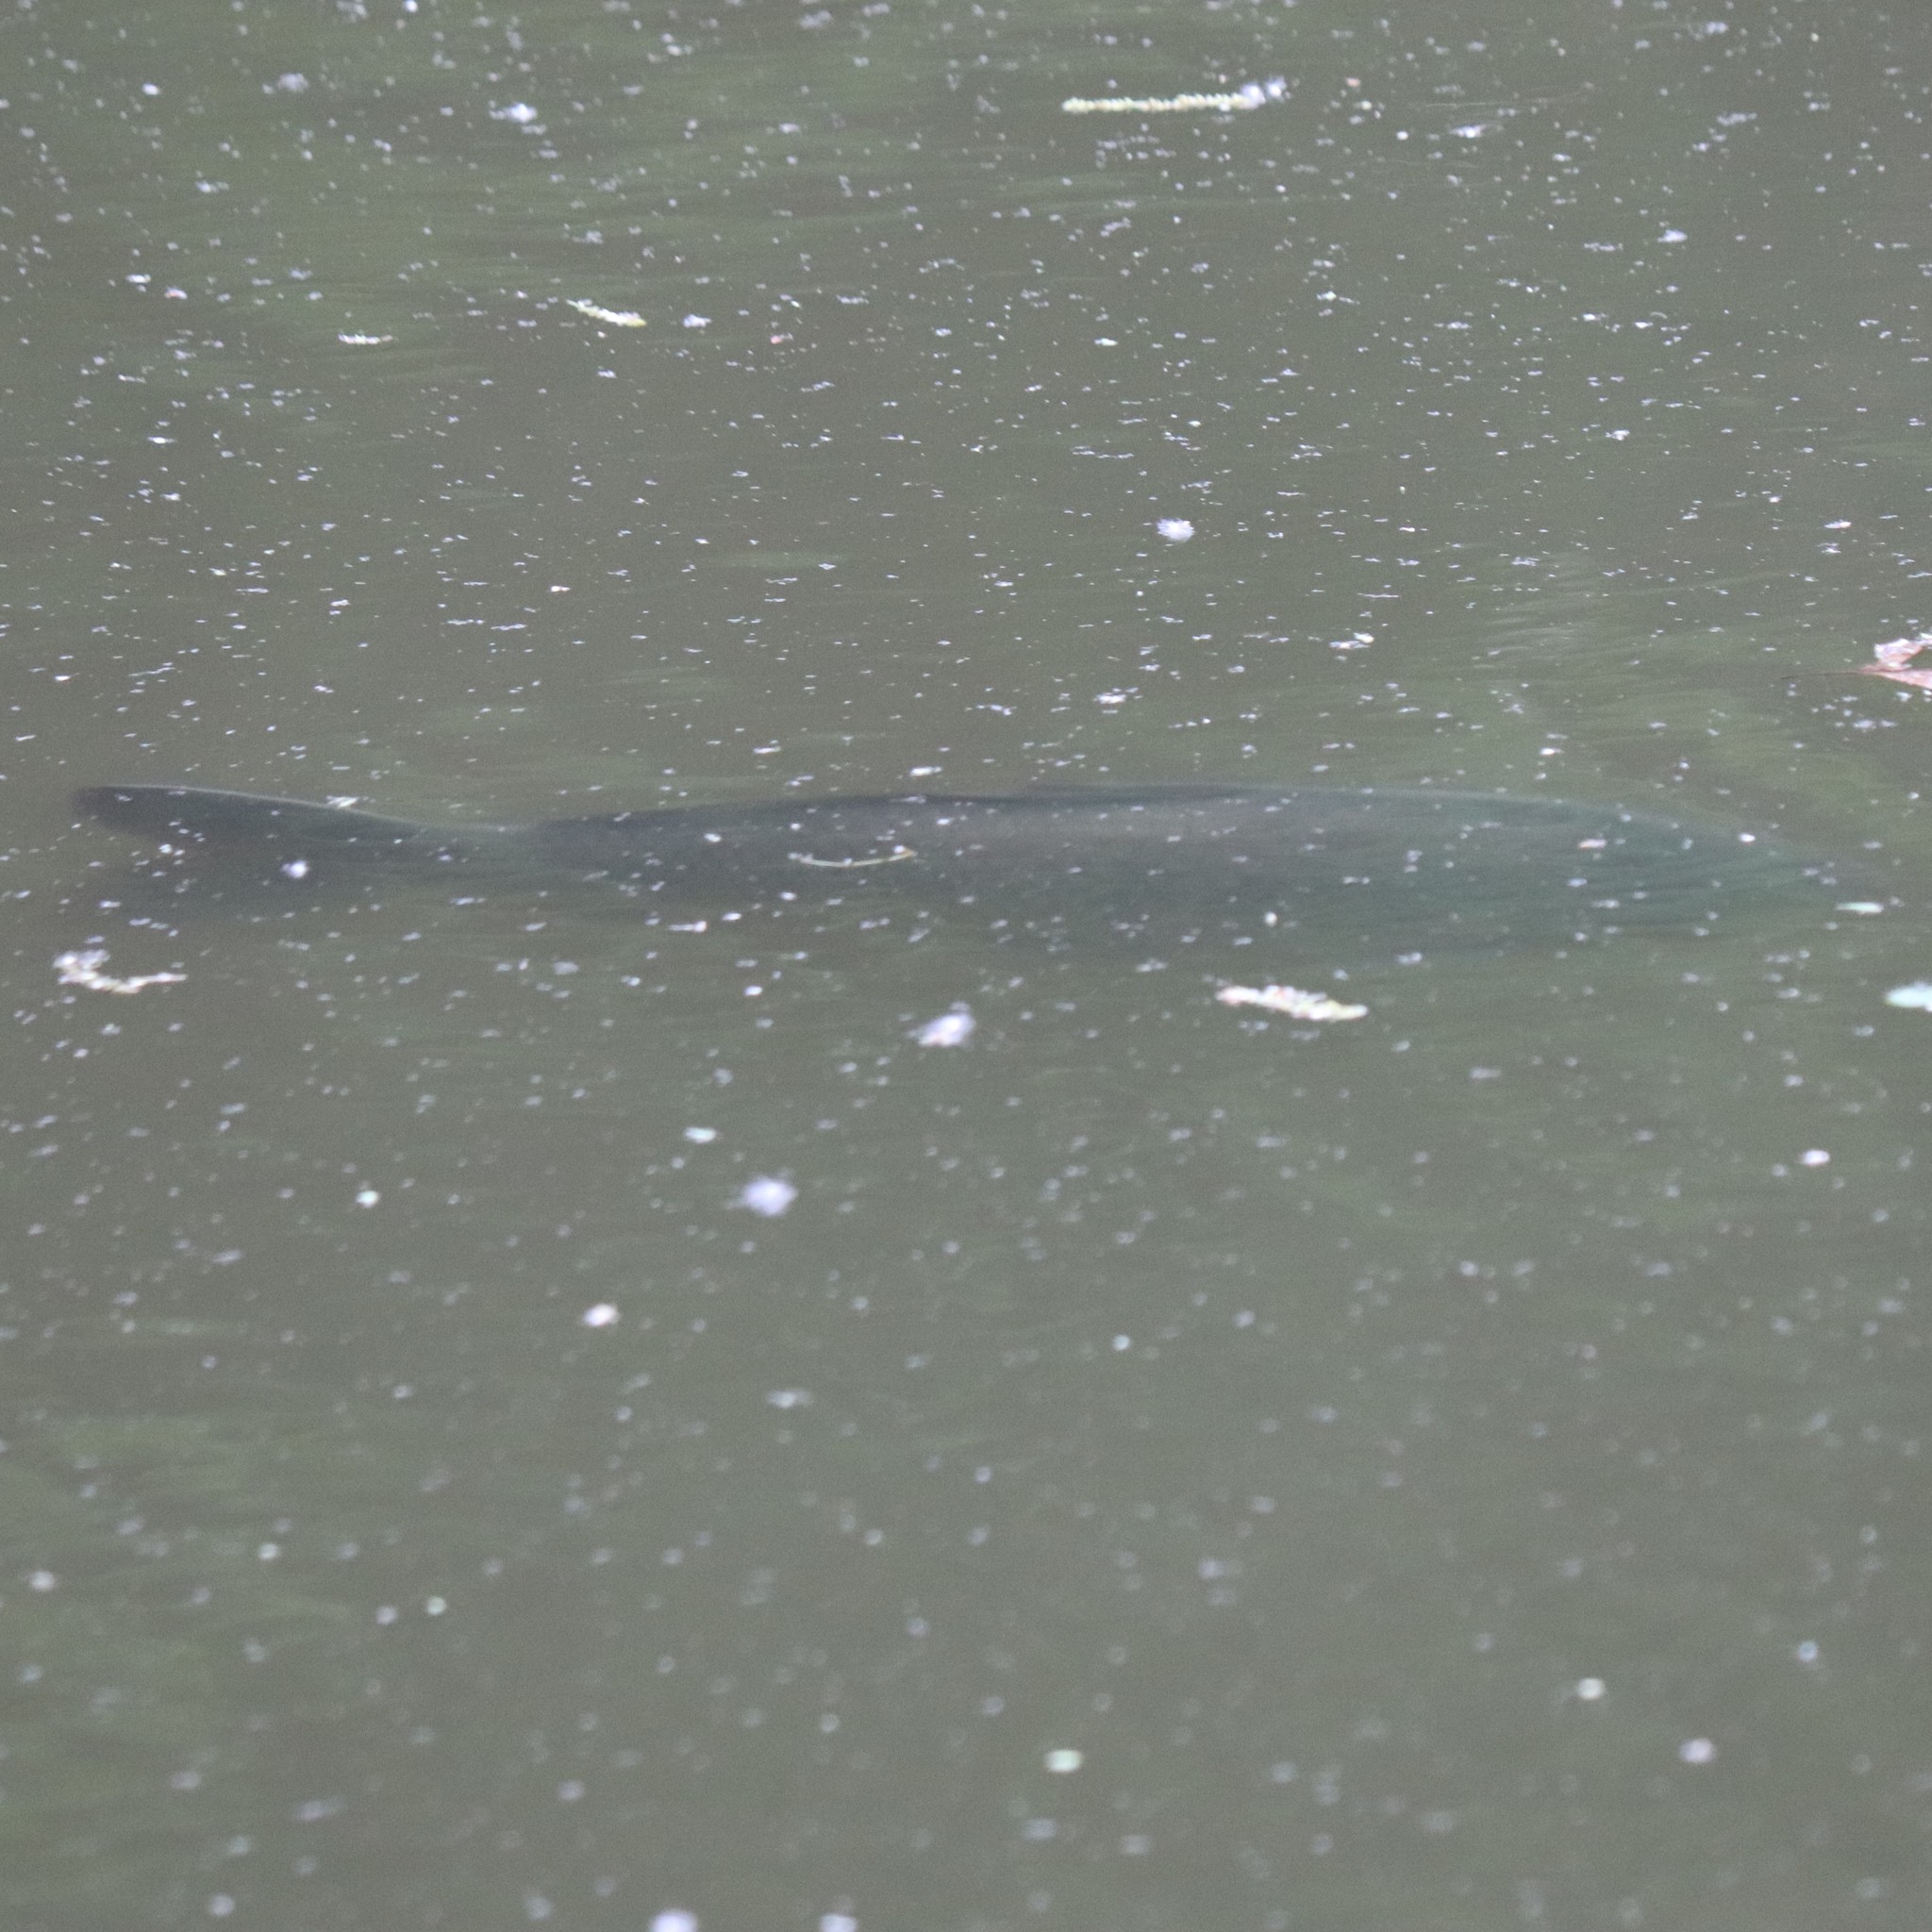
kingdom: Animalia
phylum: Chordata
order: Cypriniformes
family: Cyprinidae
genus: Cyprinus
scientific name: Cyprinus carpio
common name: Common carp
